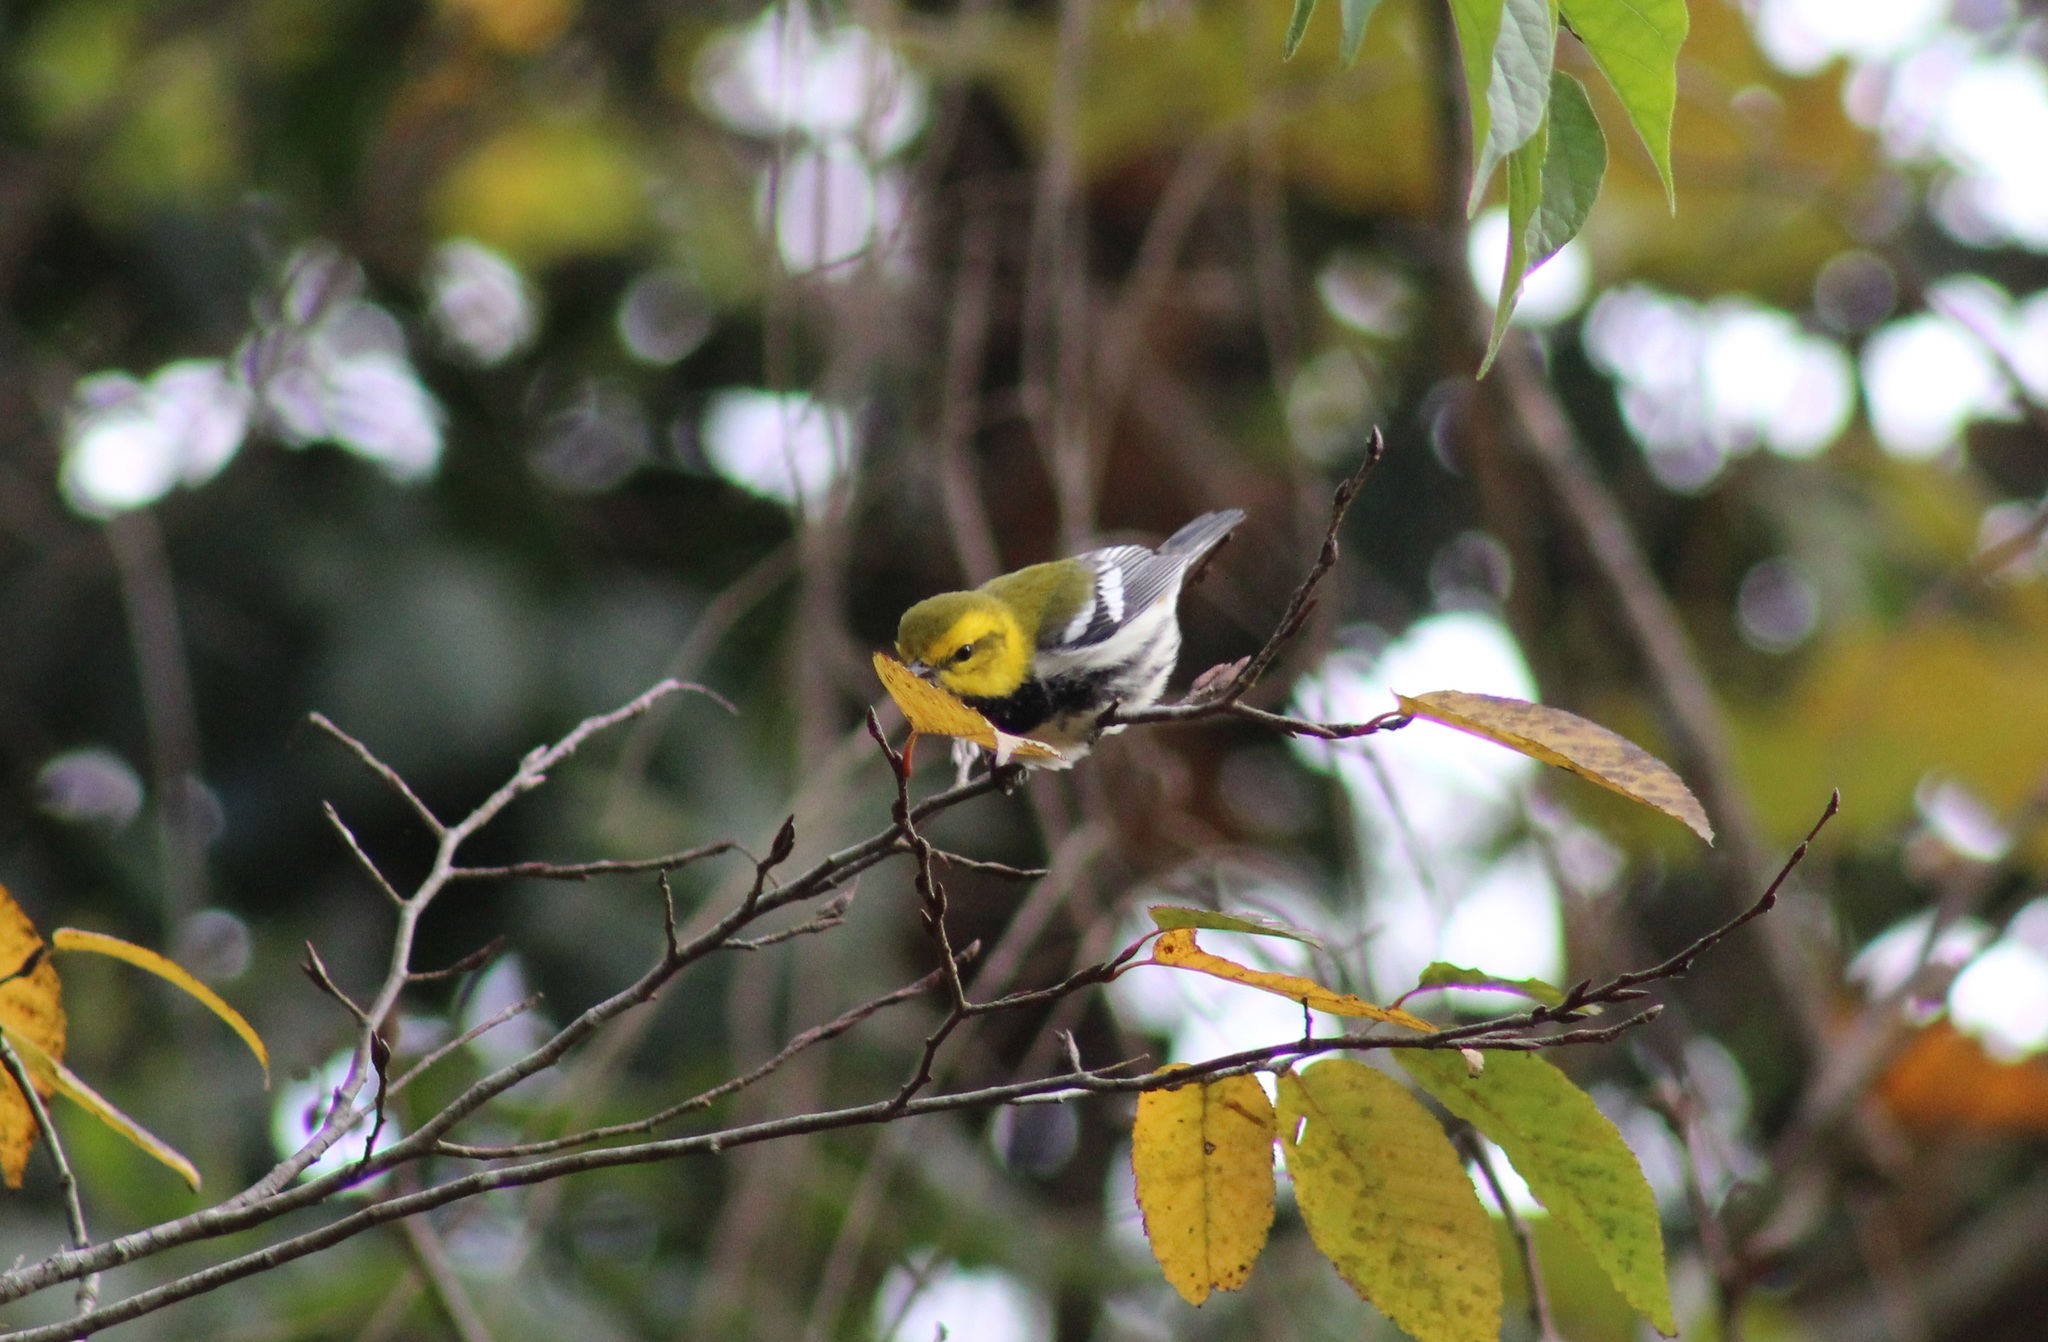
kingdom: Animalia
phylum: Chordata
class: Aves
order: Passeriformes
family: Parulidae
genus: Setophaga
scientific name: Setophaga virens
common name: Black-throated green warbler
